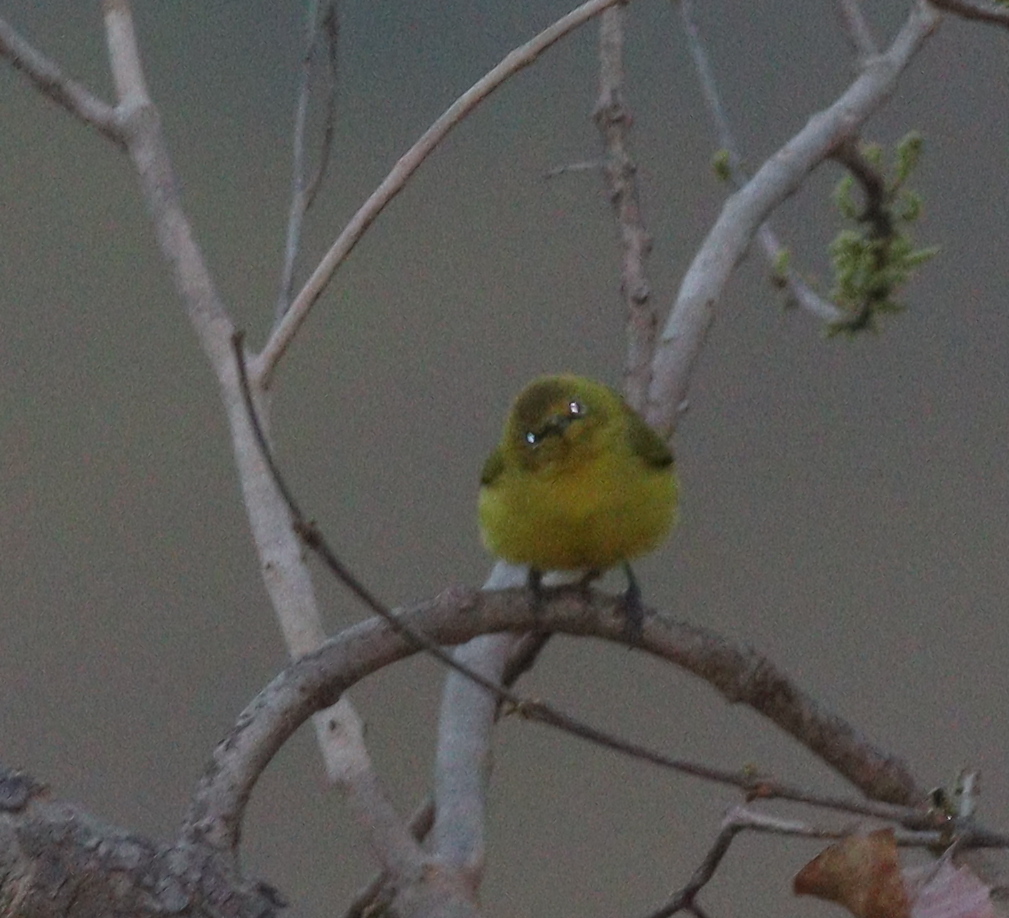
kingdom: Animalia
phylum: Chordata
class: Aves
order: Passeriformes
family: Zosteropidae
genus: Zosterops
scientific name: Zosterops senegalensis
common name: African yellow white-eye
